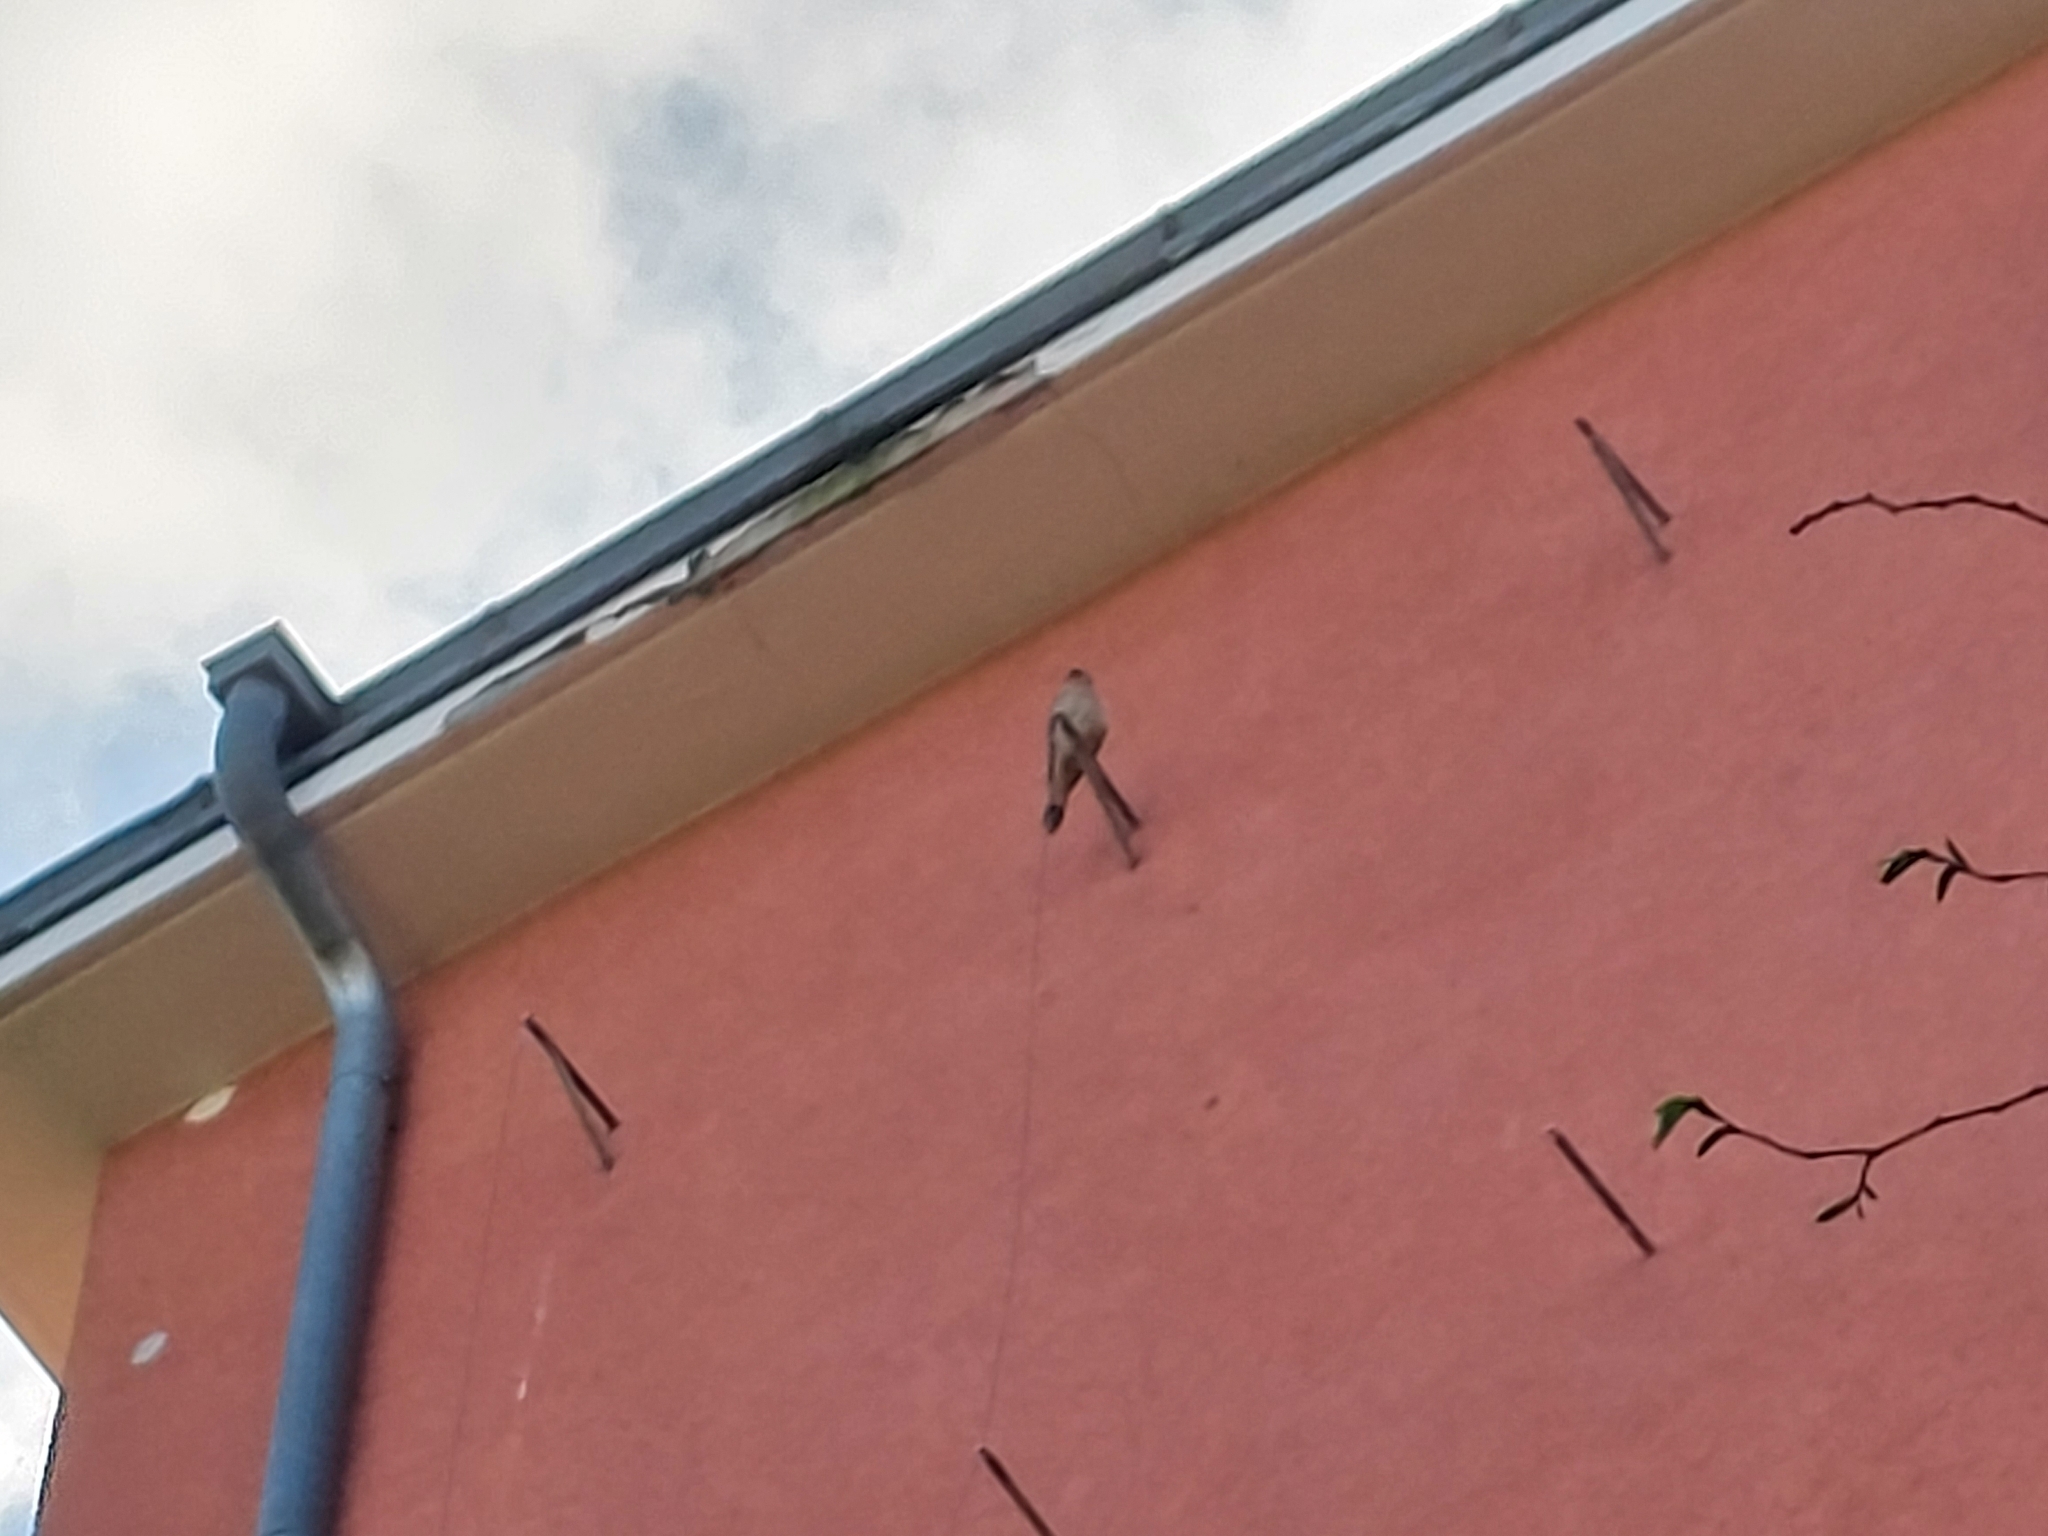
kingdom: Animalia
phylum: Chordata
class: Aves
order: Falconiformes
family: Falconidae
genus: Falco
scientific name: Falco tinnunculus
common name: Common kestrel
